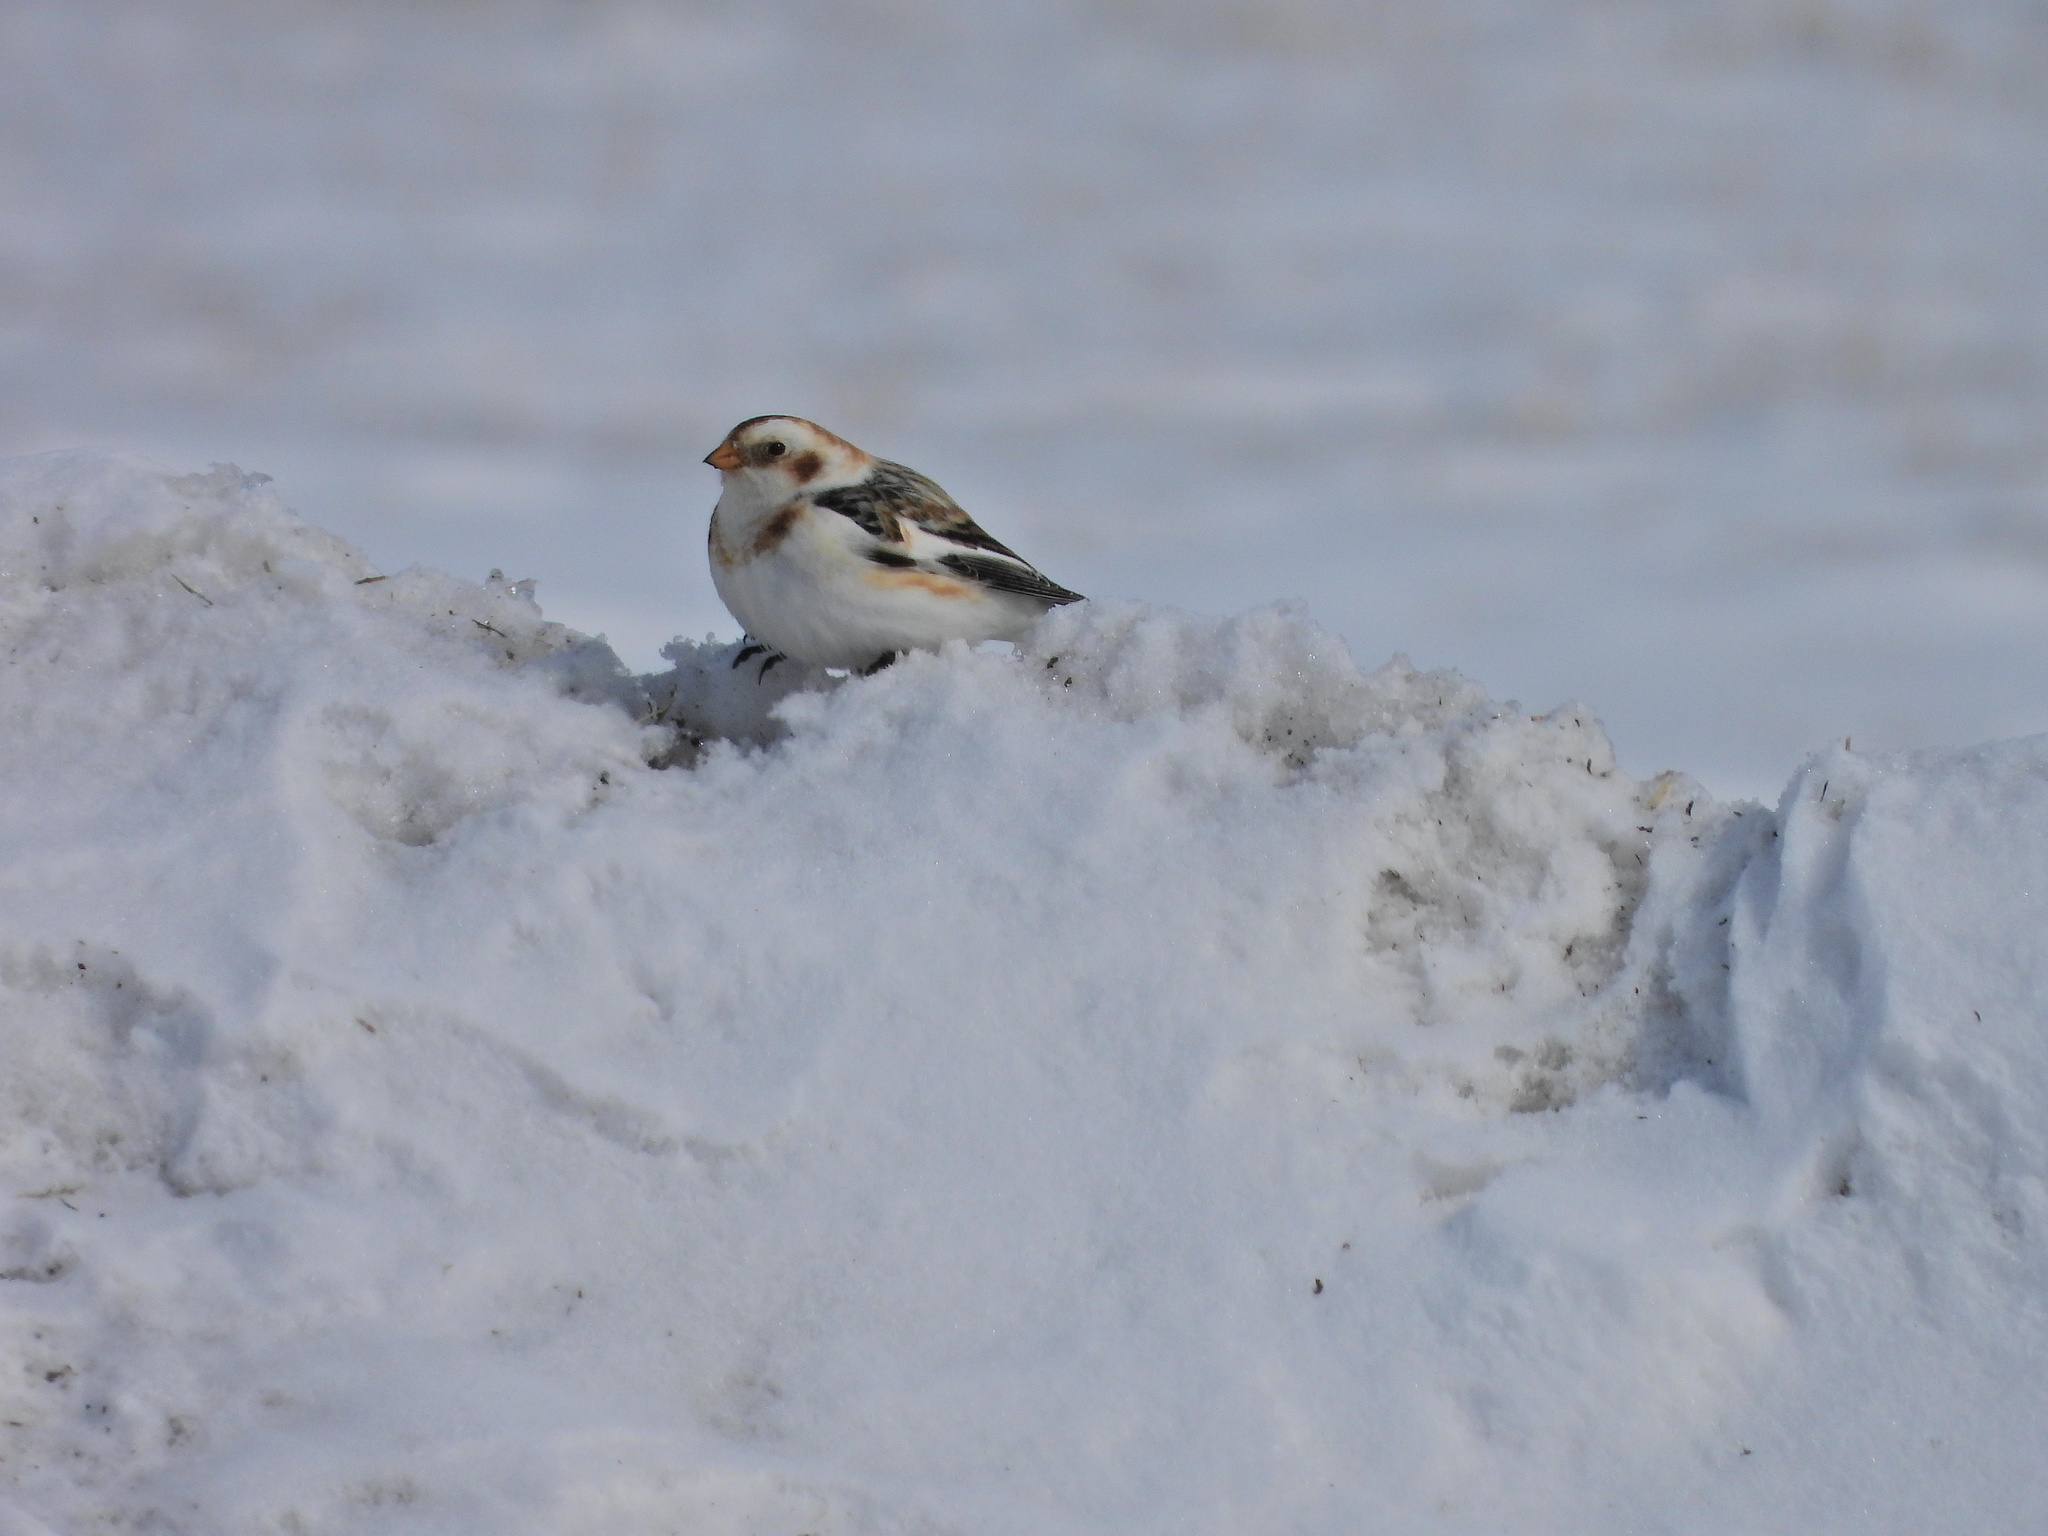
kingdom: Animalia
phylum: Chordata
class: Aves
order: Passeriformes
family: Calcariidae
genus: Plectrophenax
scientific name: Plectrophenax nivalis
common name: Snow bunting
